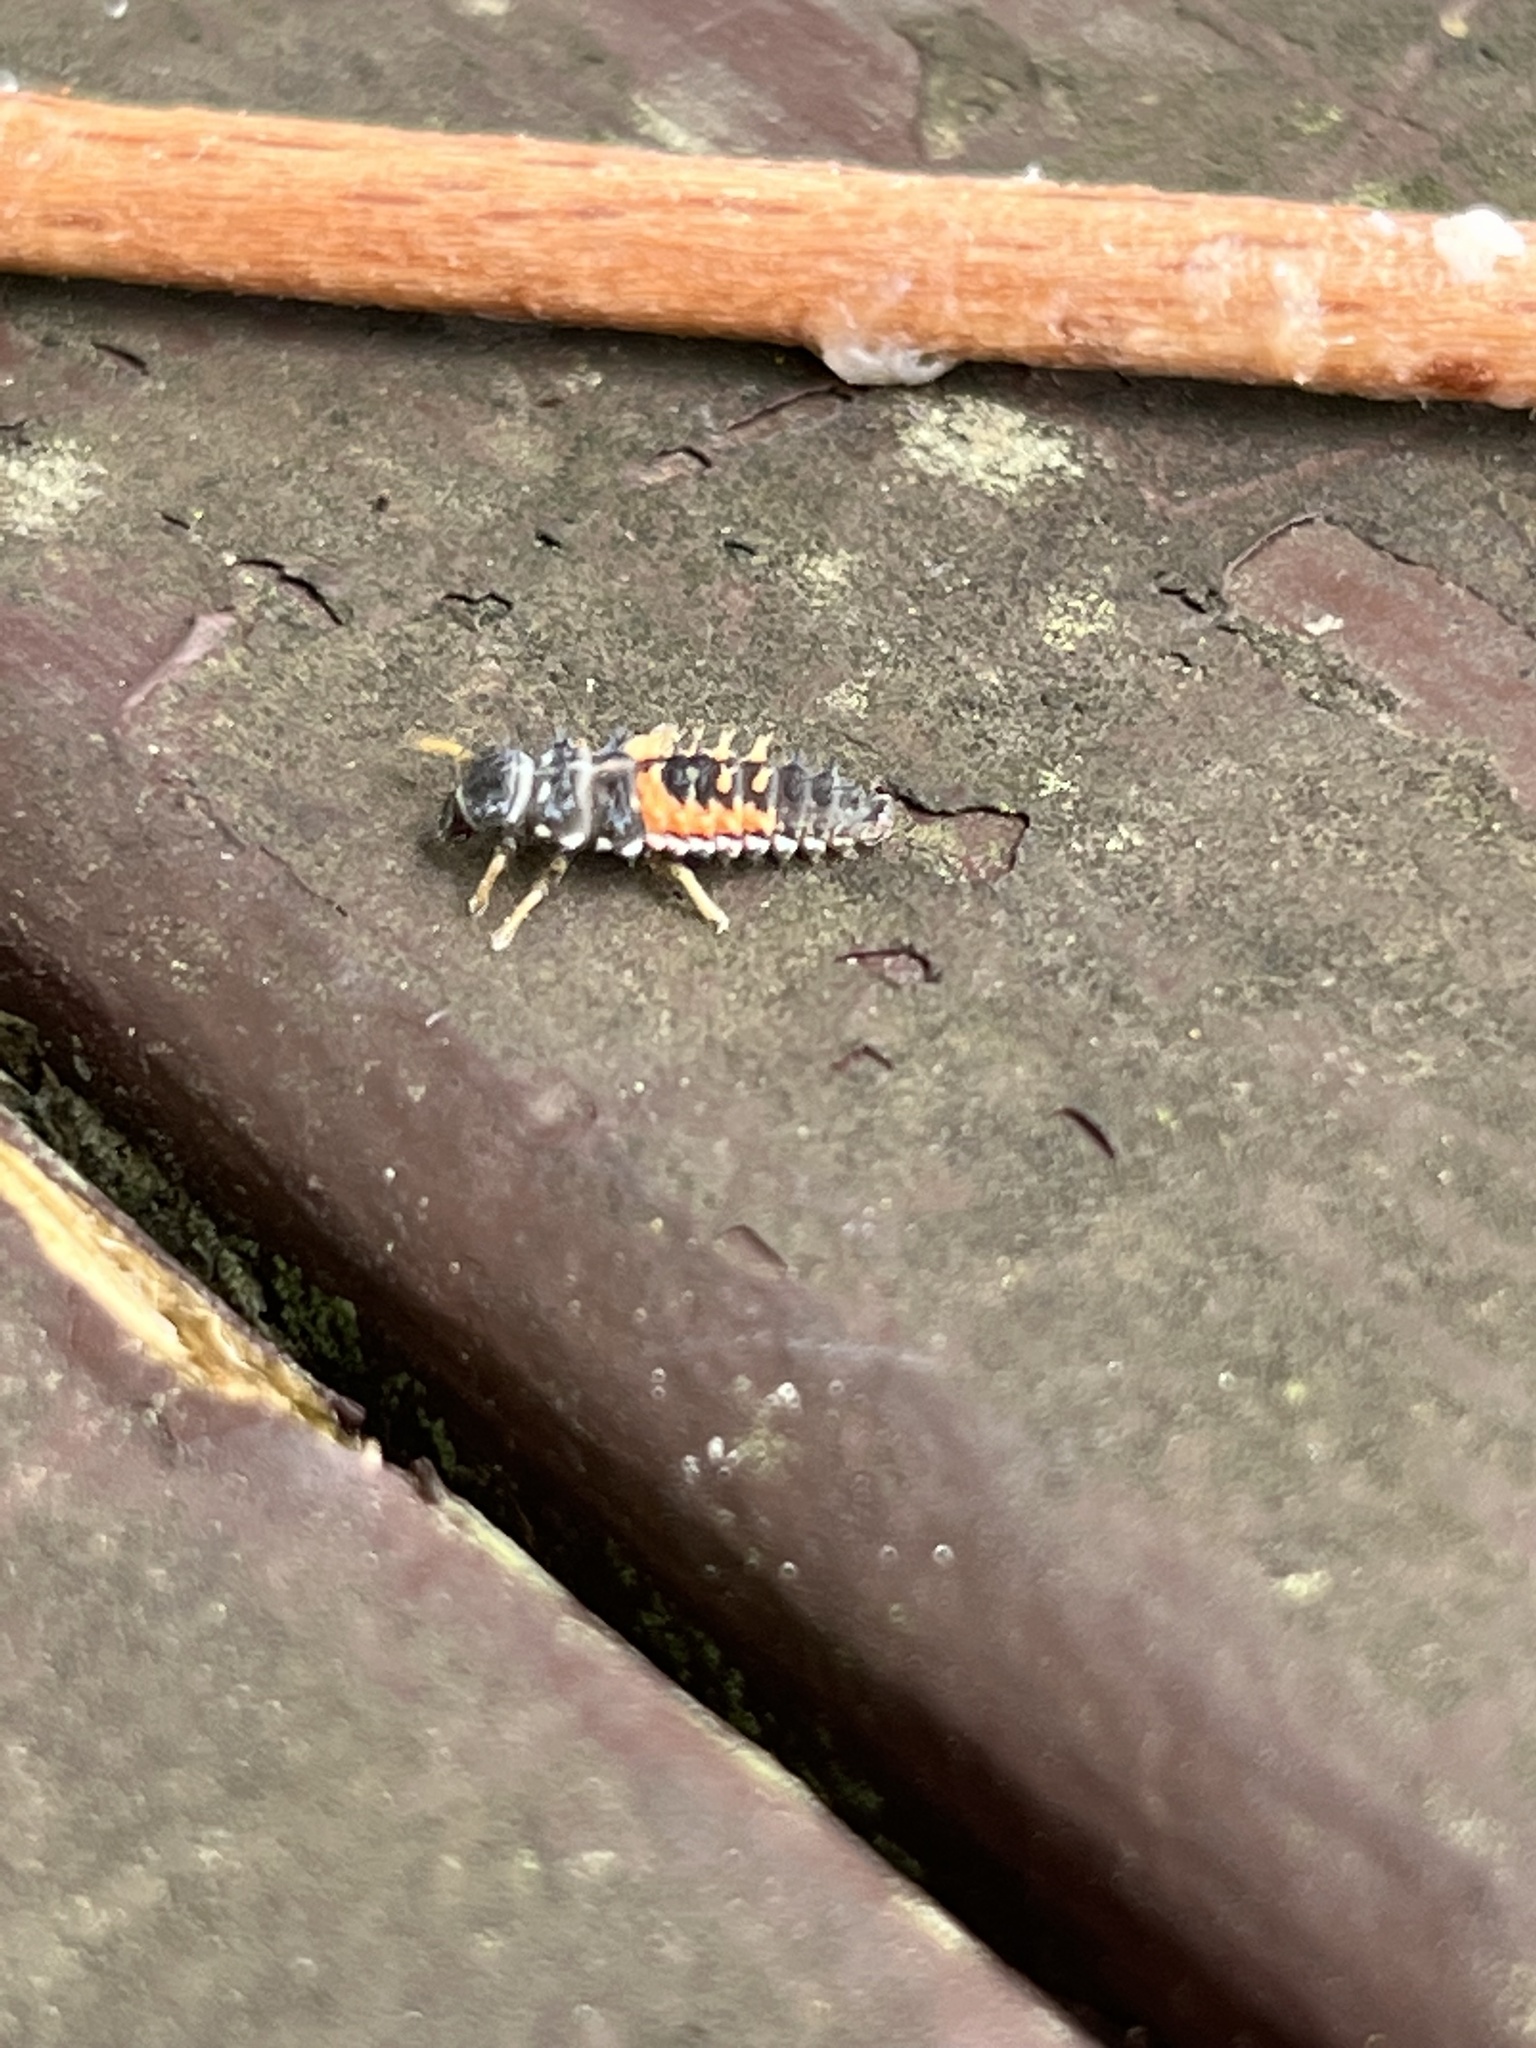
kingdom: Animalia
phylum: Arthropoda
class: Insecta
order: Coleoptera
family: Coccinellidae
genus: Harmonia
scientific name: Harmonia axyridis
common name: Harlequin ladybird
